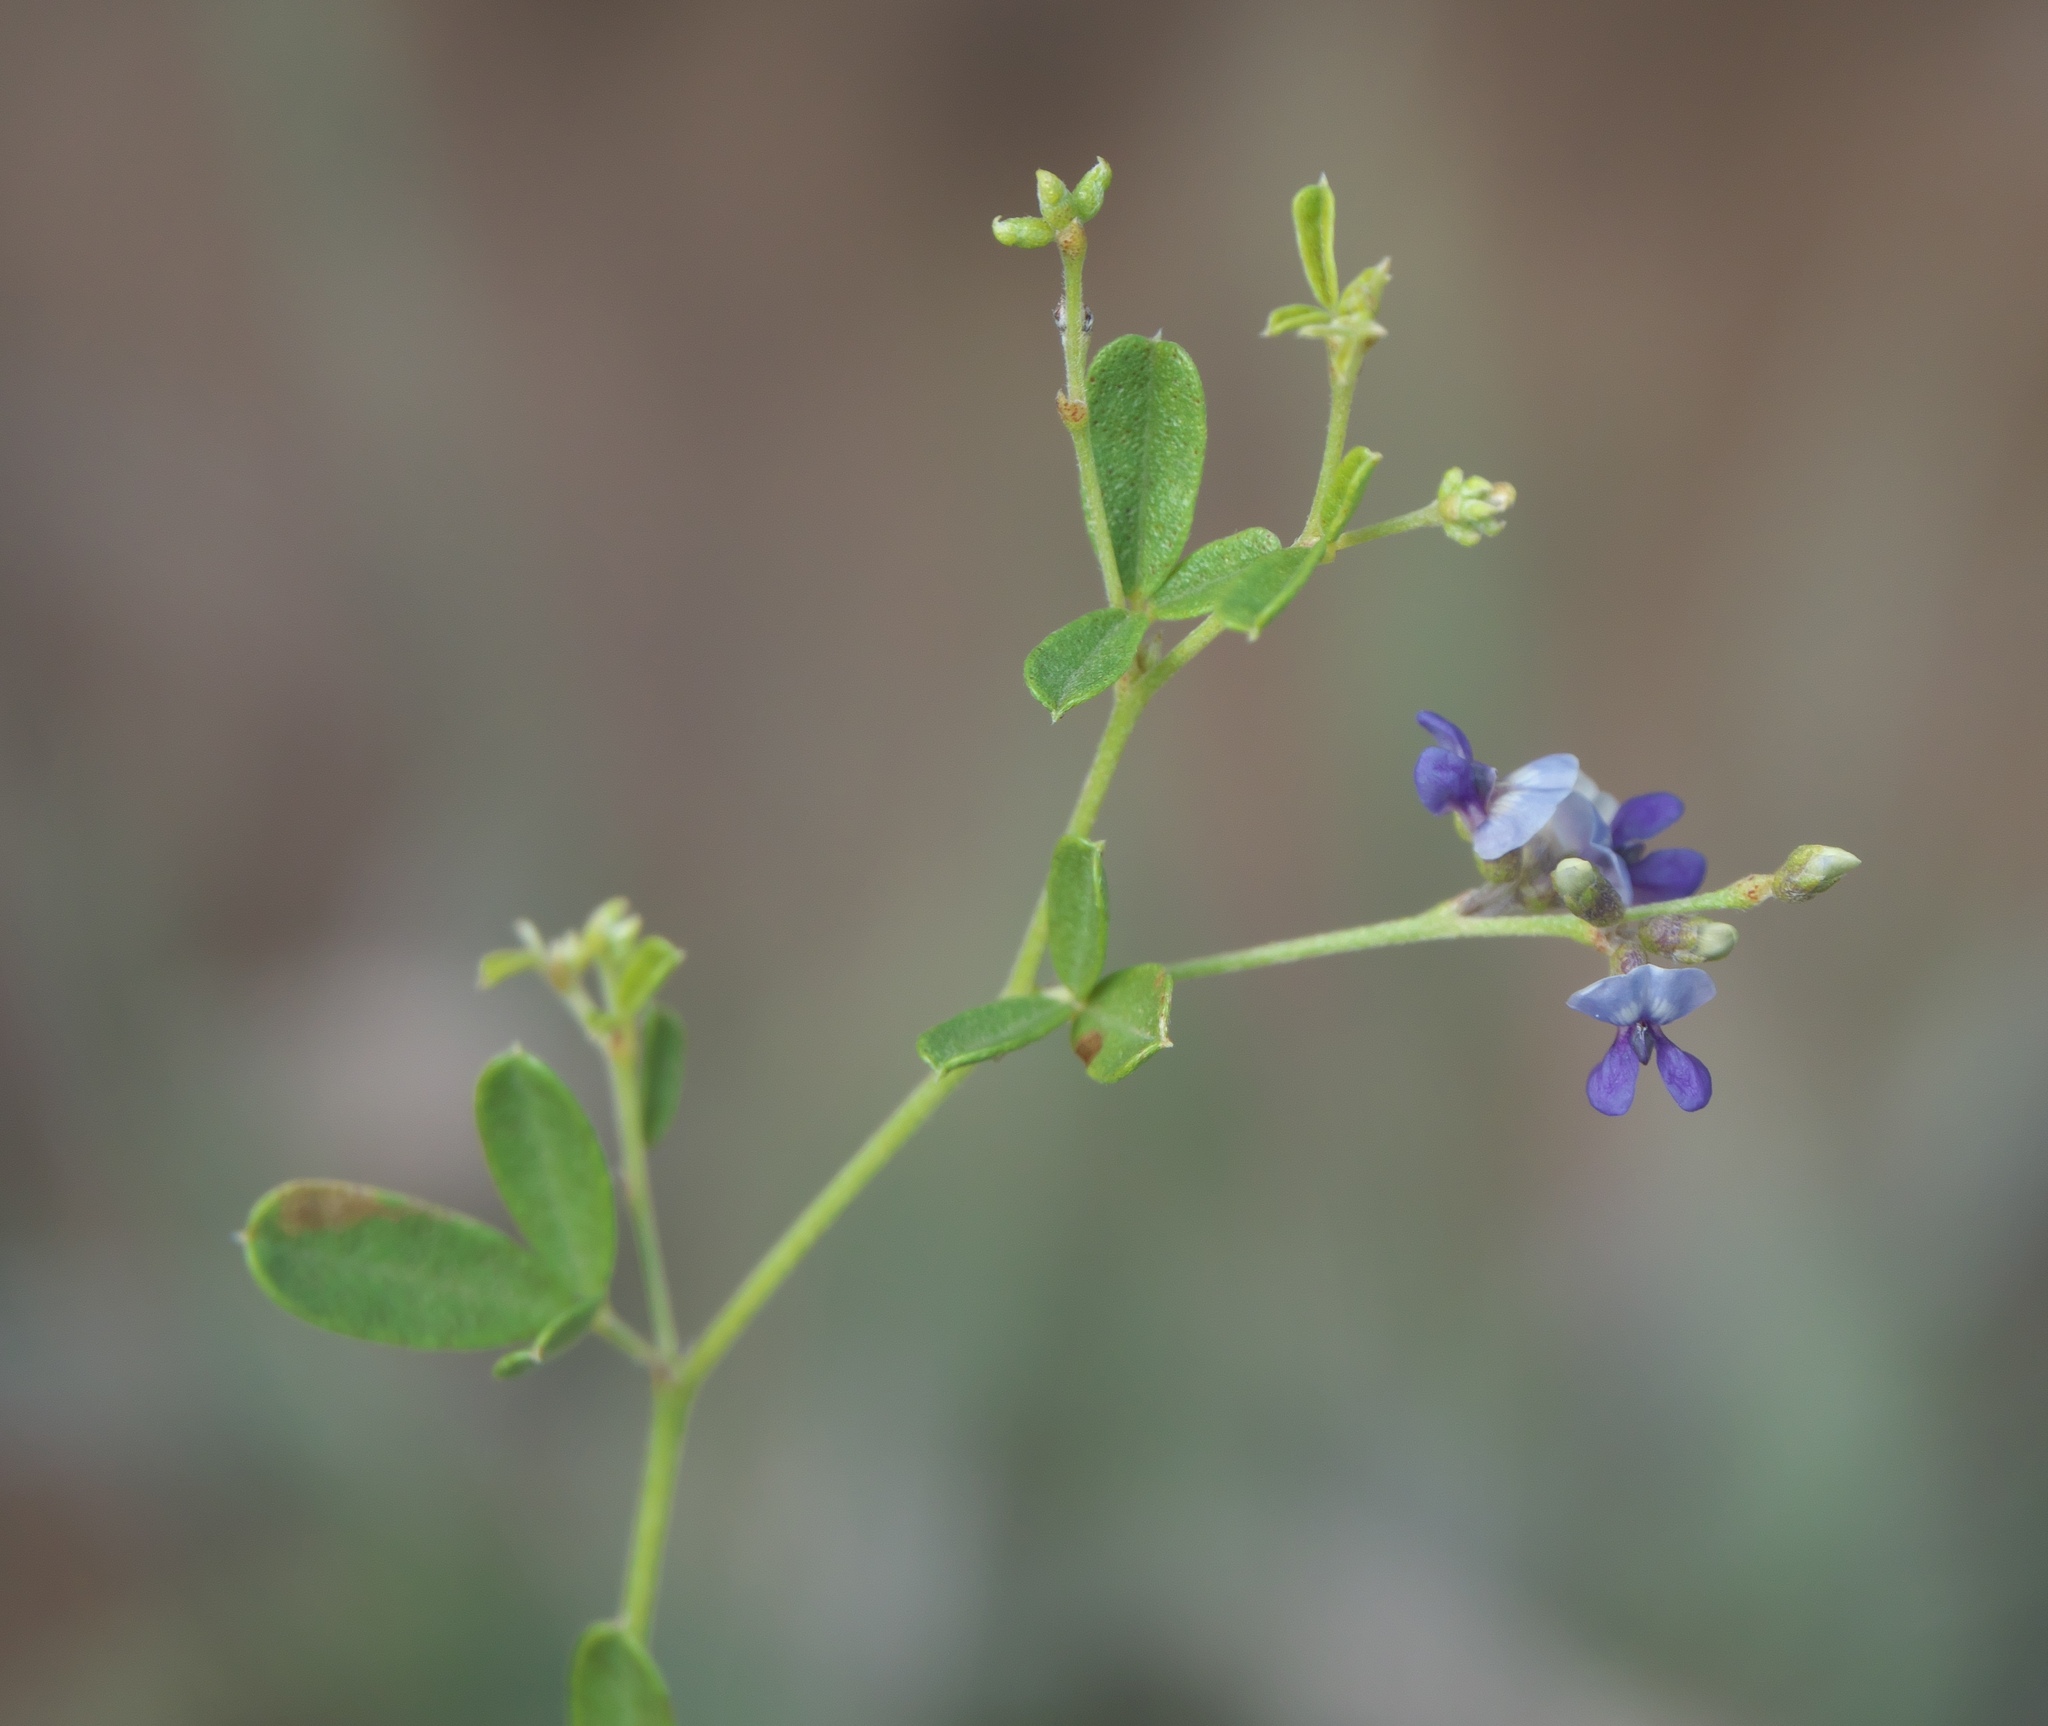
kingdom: Plantae
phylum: Tracheophyta
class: Magnoliopsida
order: Fabales
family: Fabaceae
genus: Pediomelum
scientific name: Pediomelum tenuiflorum
